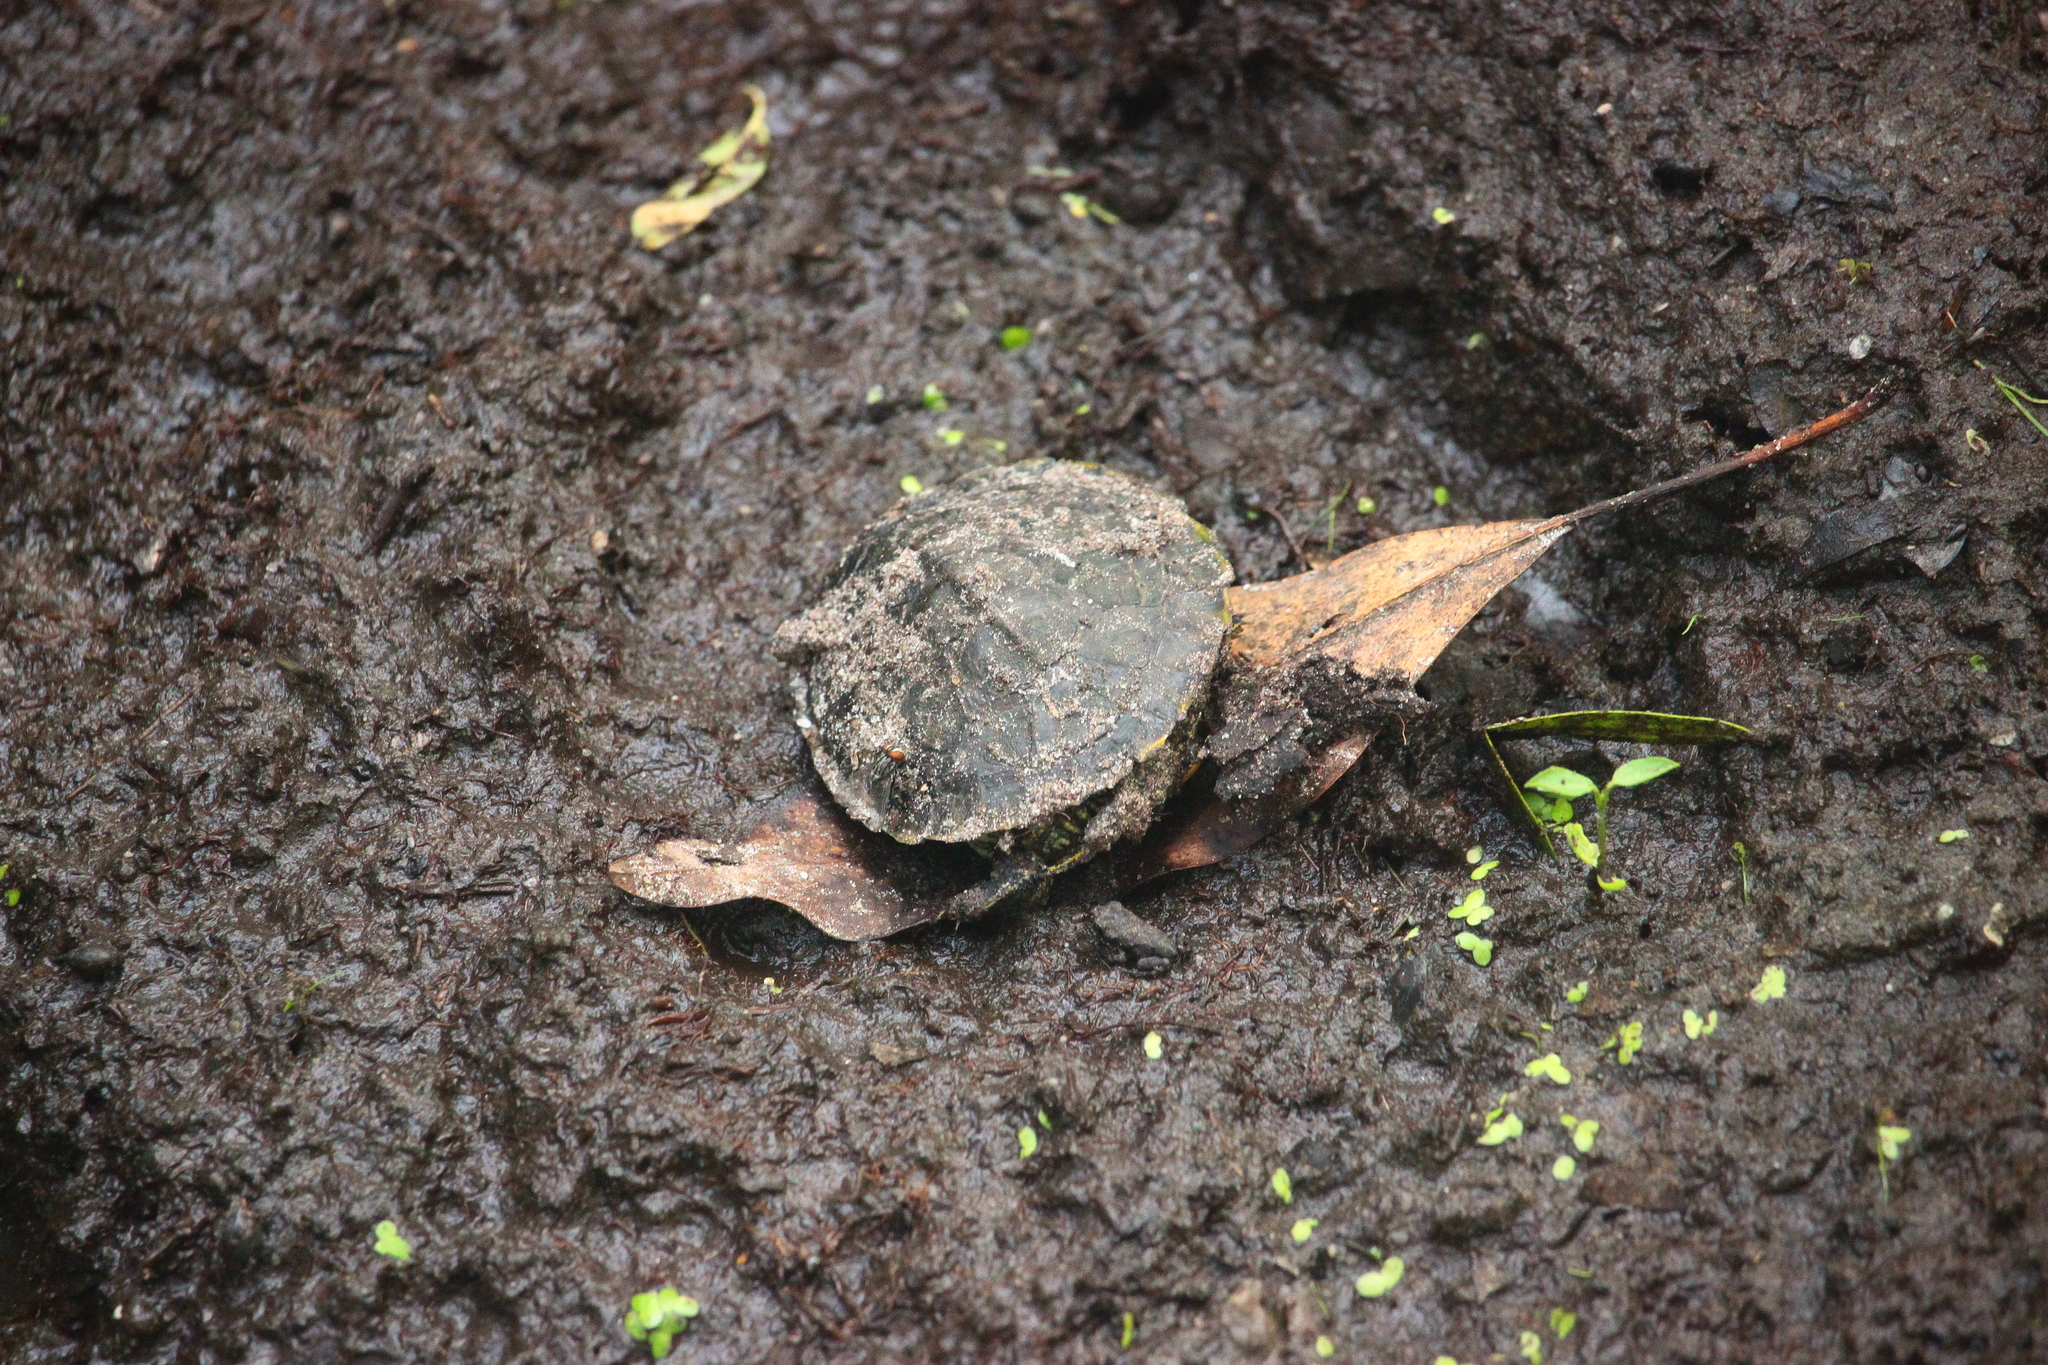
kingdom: Animalia
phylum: Chordata
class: Testudines
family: Emydidae
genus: Trachemys
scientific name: Trachemys scripta
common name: Slider
